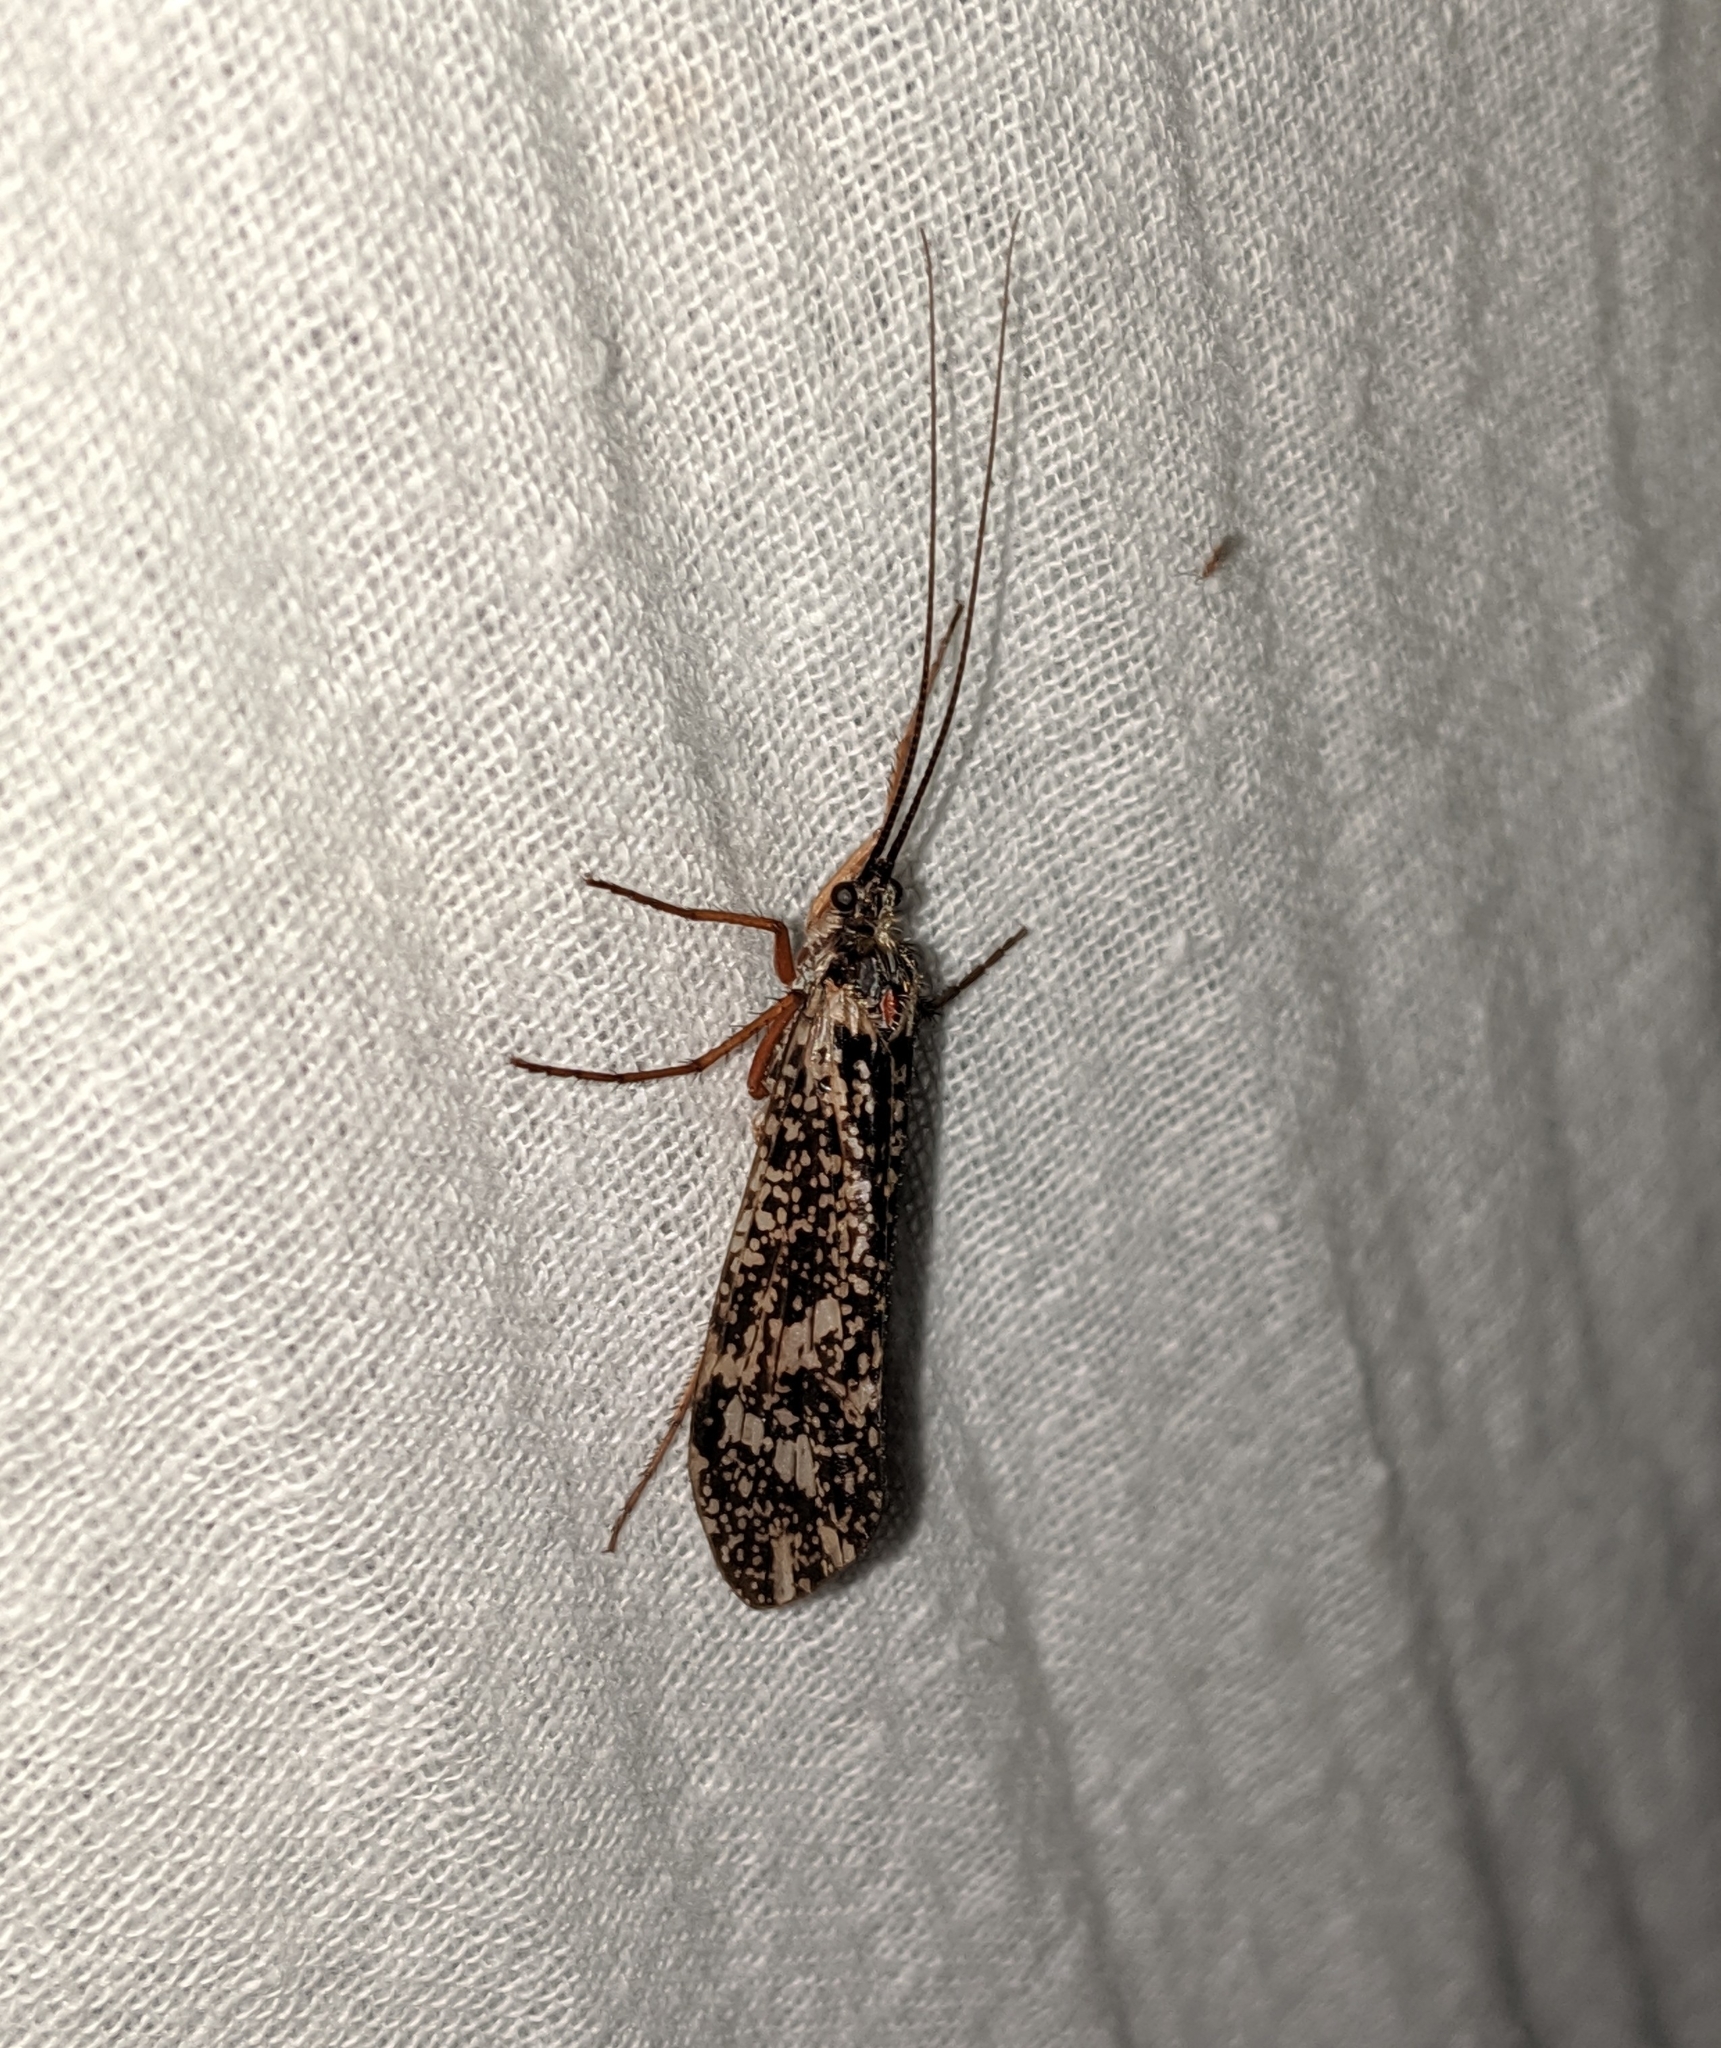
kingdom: Animalia
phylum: Arthropoda
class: Insecta
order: Trichoptera
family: Limnephilidae
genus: Clistoronia
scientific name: Clistoronia magnifica
